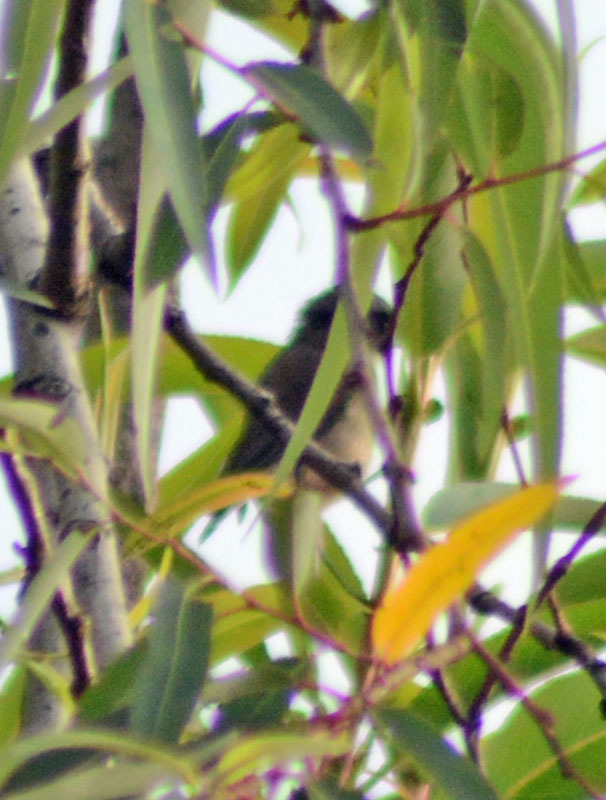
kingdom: Animalia
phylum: Chordata
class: Aves
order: Passeriformes
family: Aegithalidae
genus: Psaltriparus
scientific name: Psaltriparus minimus
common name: American bushtit
